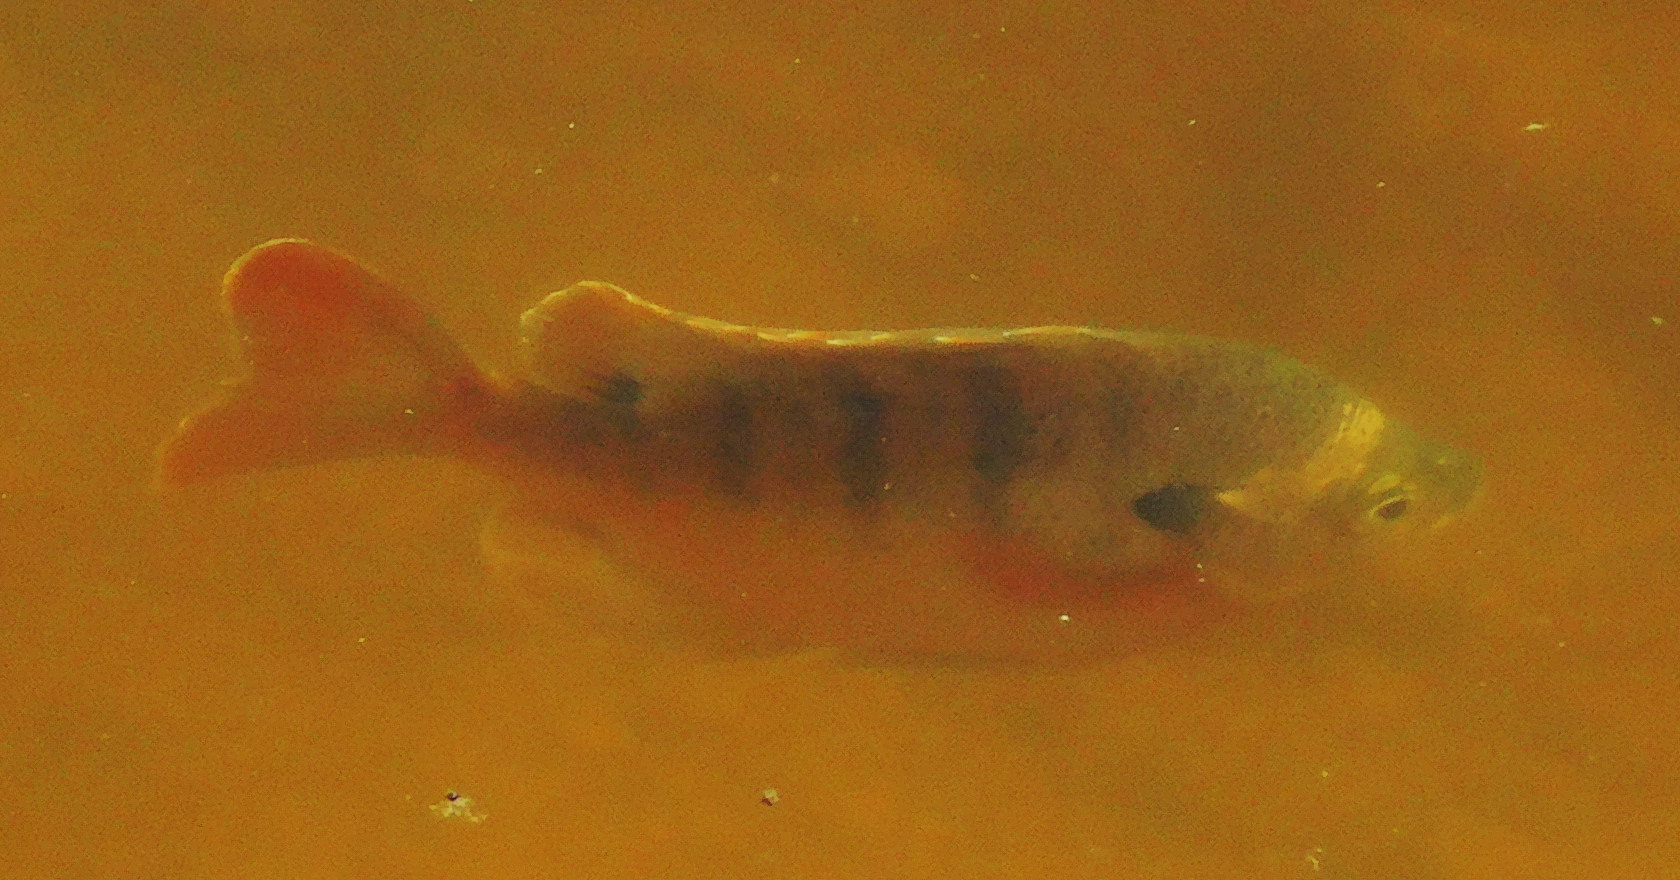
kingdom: Animalia
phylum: Chordata
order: Perciformes
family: Centrarchidae
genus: Lepomis
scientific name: Lepomis macrochirus
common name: Bluegill
